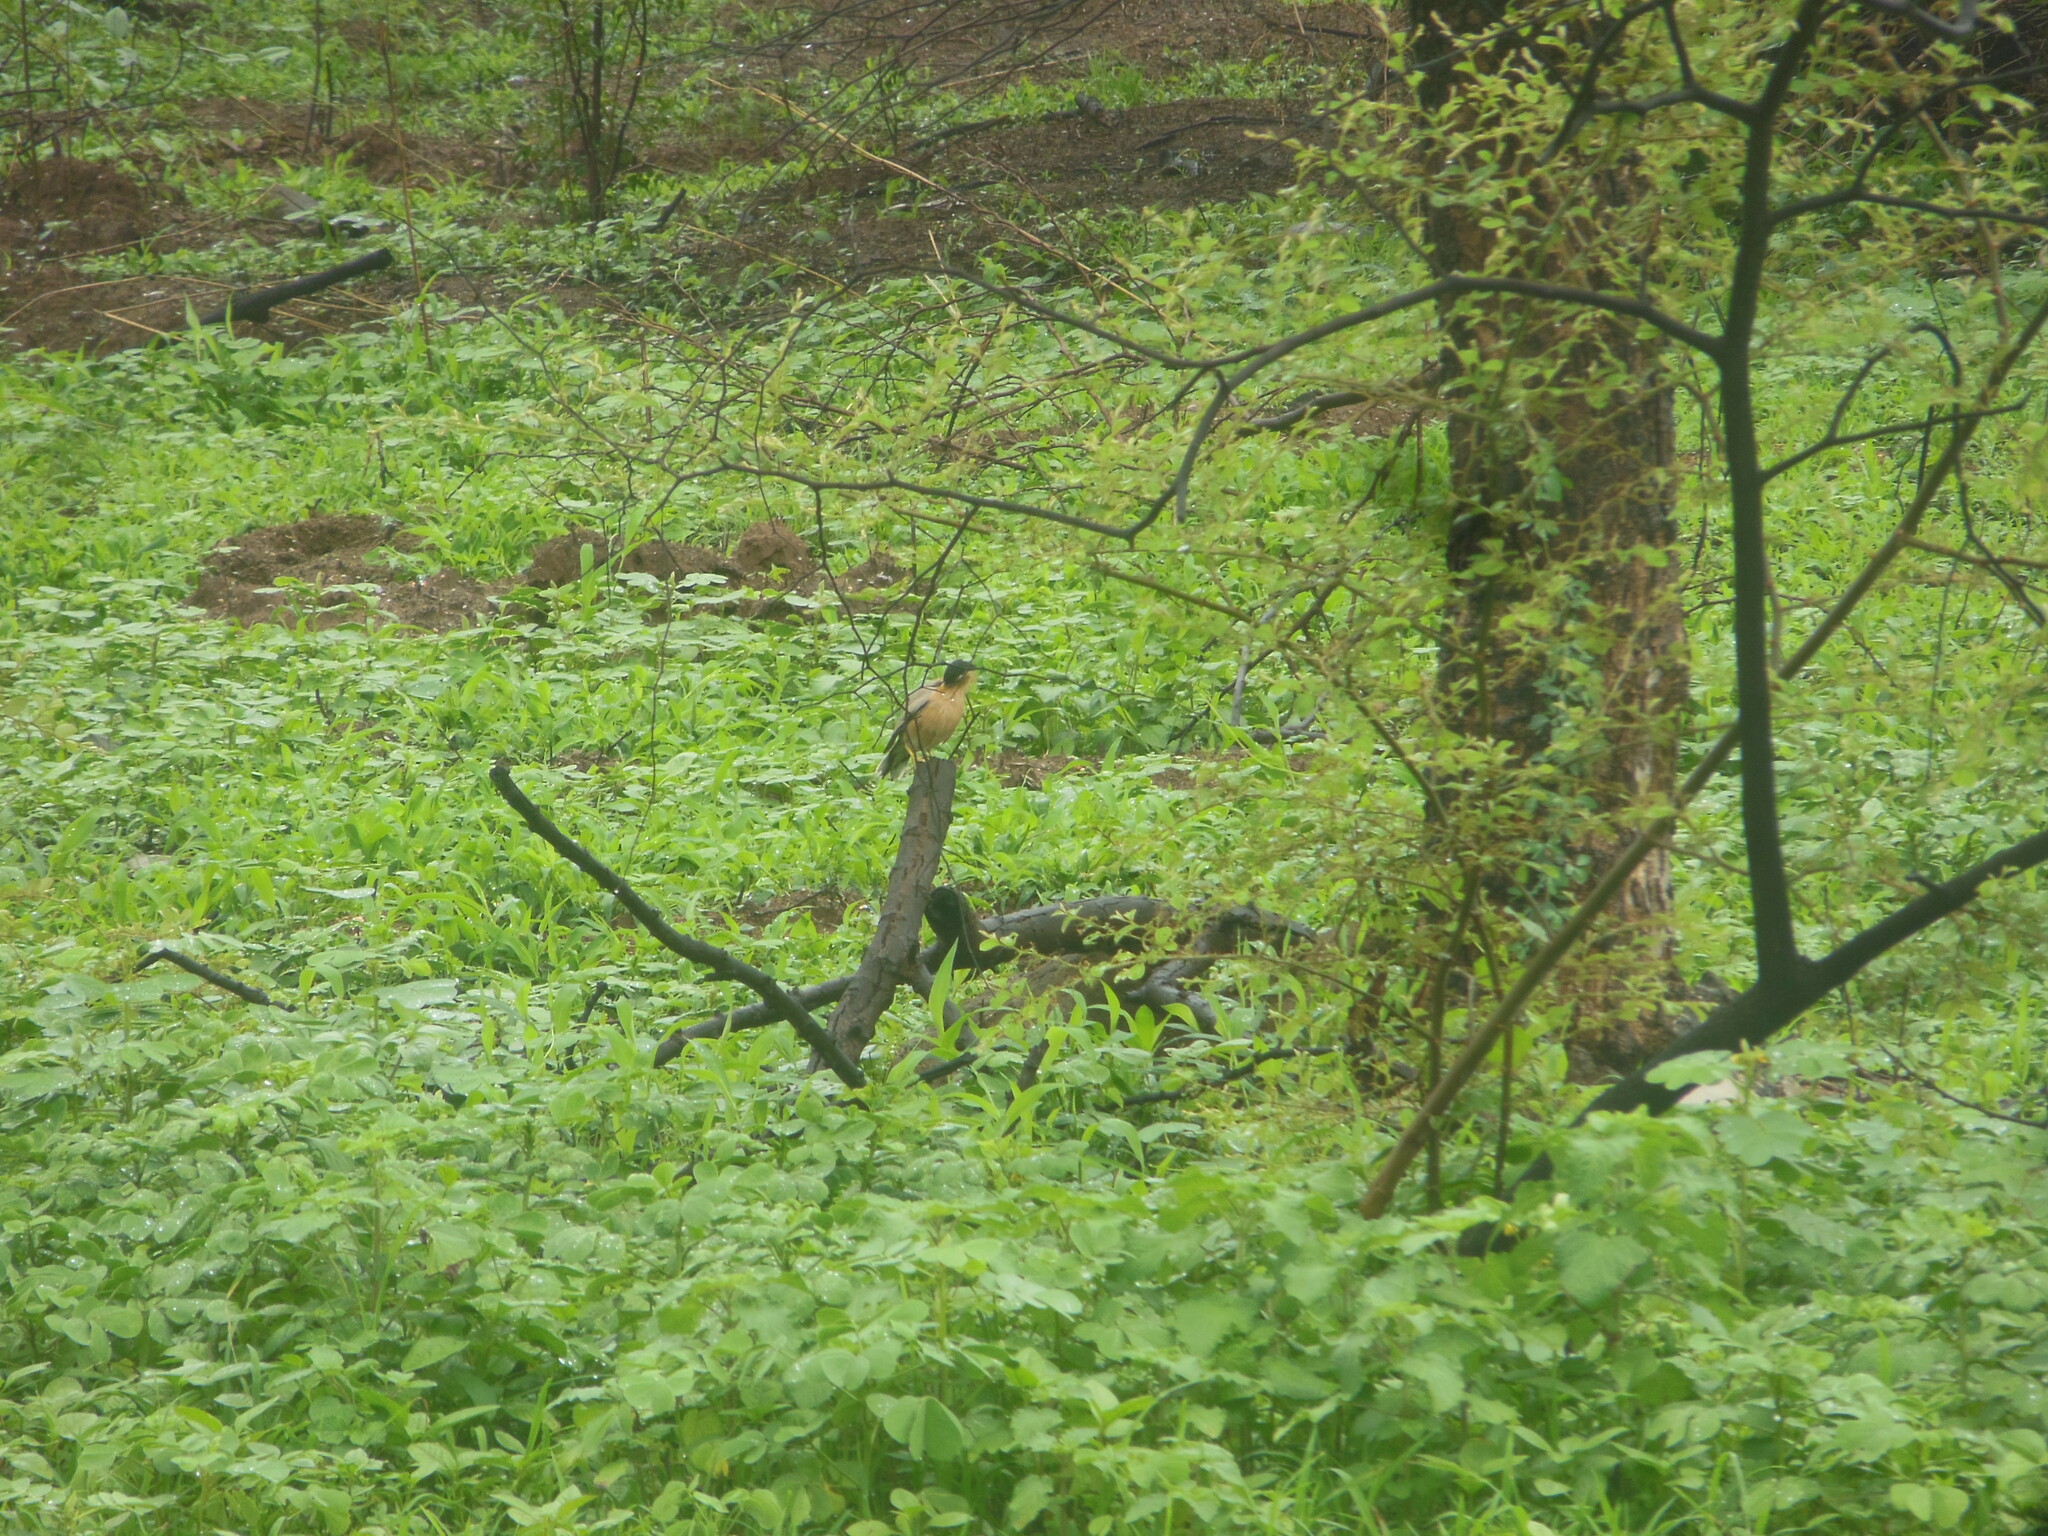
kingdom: Animalia
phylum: Chordata
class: Aves
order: Passeriformes
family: Sturnidae
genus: Sturnia
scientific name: Sturnia pagodarum
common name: Brahminy starling
